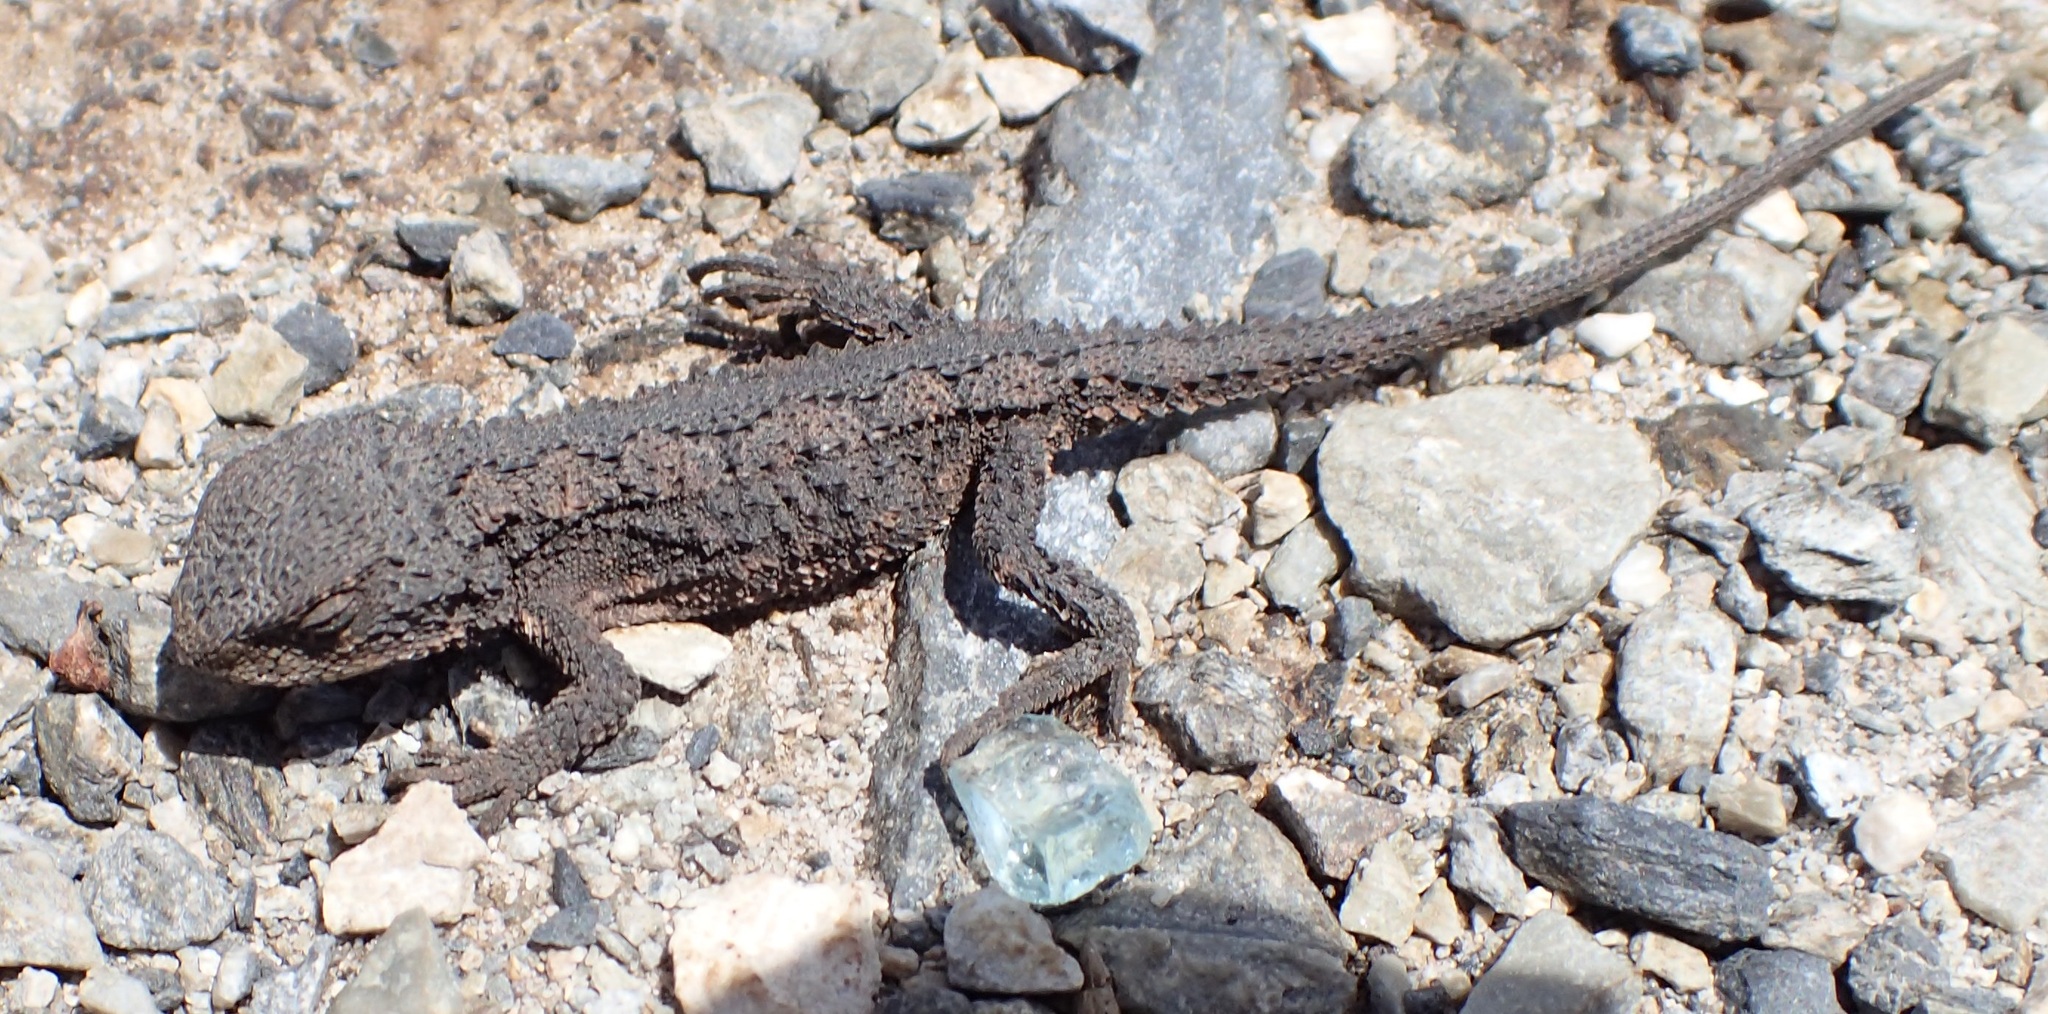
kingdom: Animalia
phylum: Chordata
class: Squamata
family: Agamidae
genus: Rankinia
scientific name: Rankinia diemensis
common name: Mountain dragon
